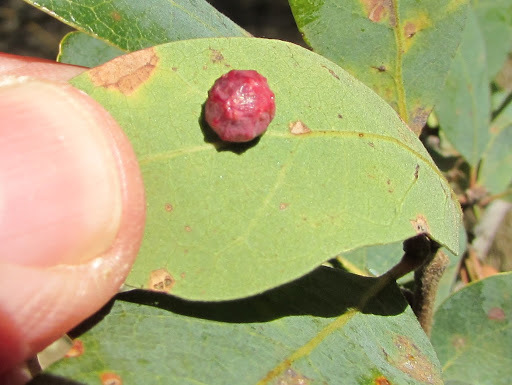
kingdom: Animalia
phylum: Arthropoda
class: Insecta
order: Hymenoptera
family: Cynipidae
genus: Cynips
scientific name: Cynips conspicua
